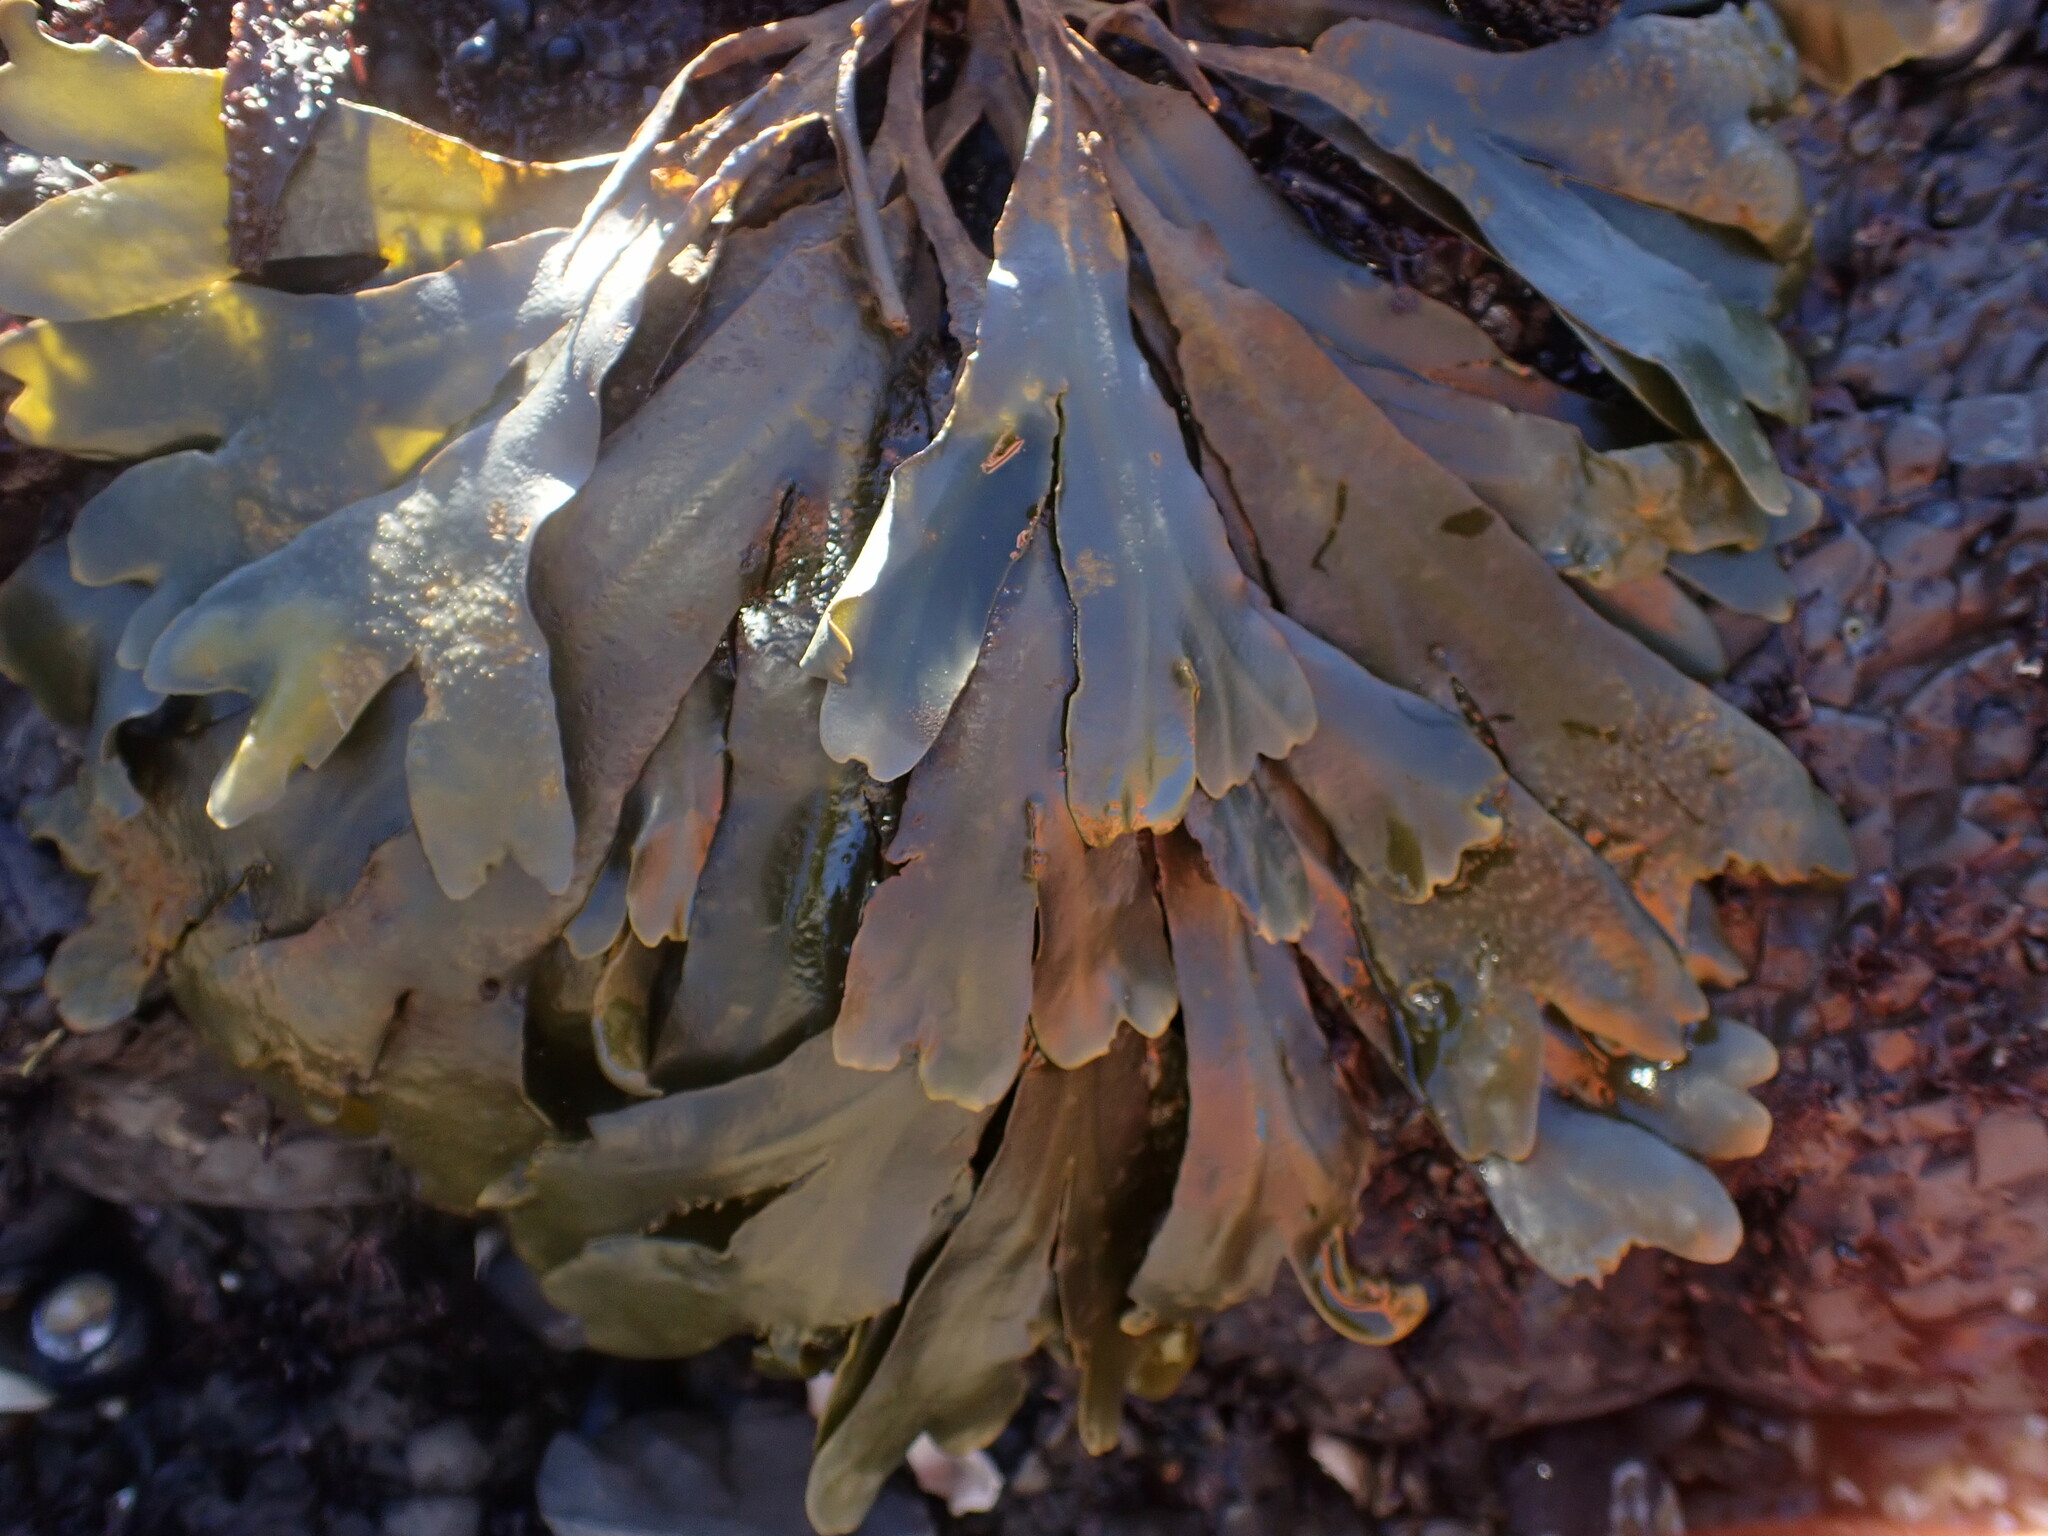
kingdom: Chromista
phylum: Ochrophyta
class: Phaeophyceae
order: Fucales
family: Fucaceae
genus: Fucus
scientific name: Fucus distichus
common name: Rockweed
